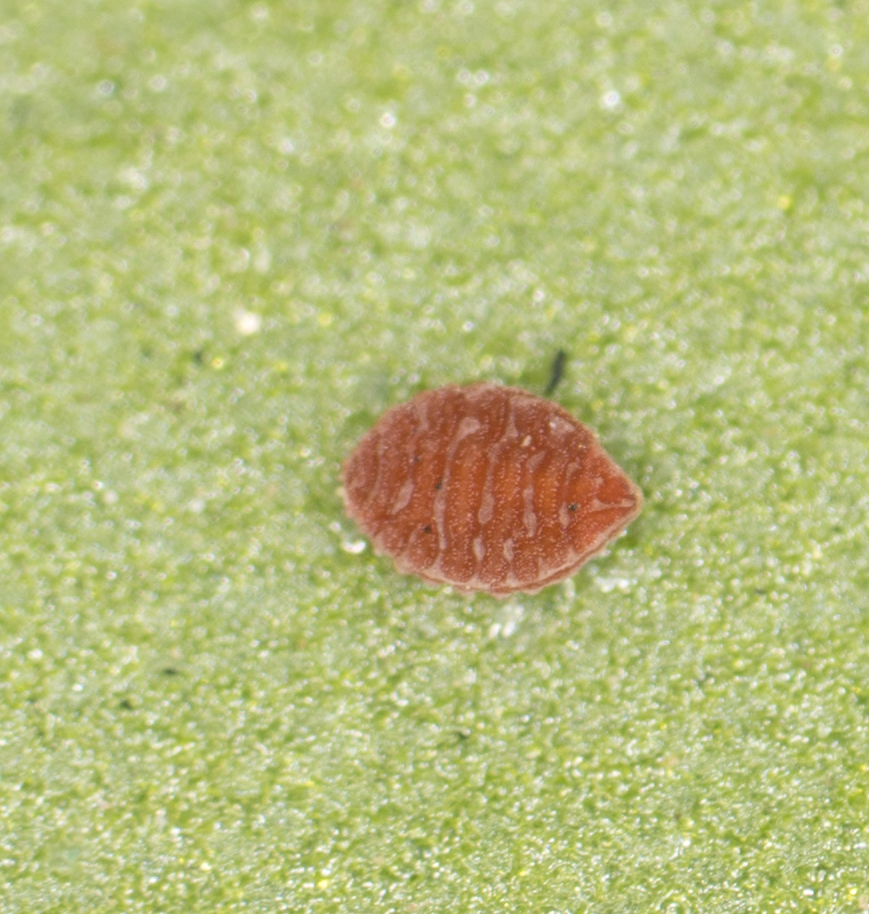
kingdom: Plantae
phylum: Tracheophyta
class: Magnoliopsida
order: Oxalidales
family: Oxalidaceae
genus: Oxalis
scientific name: Oxalis
